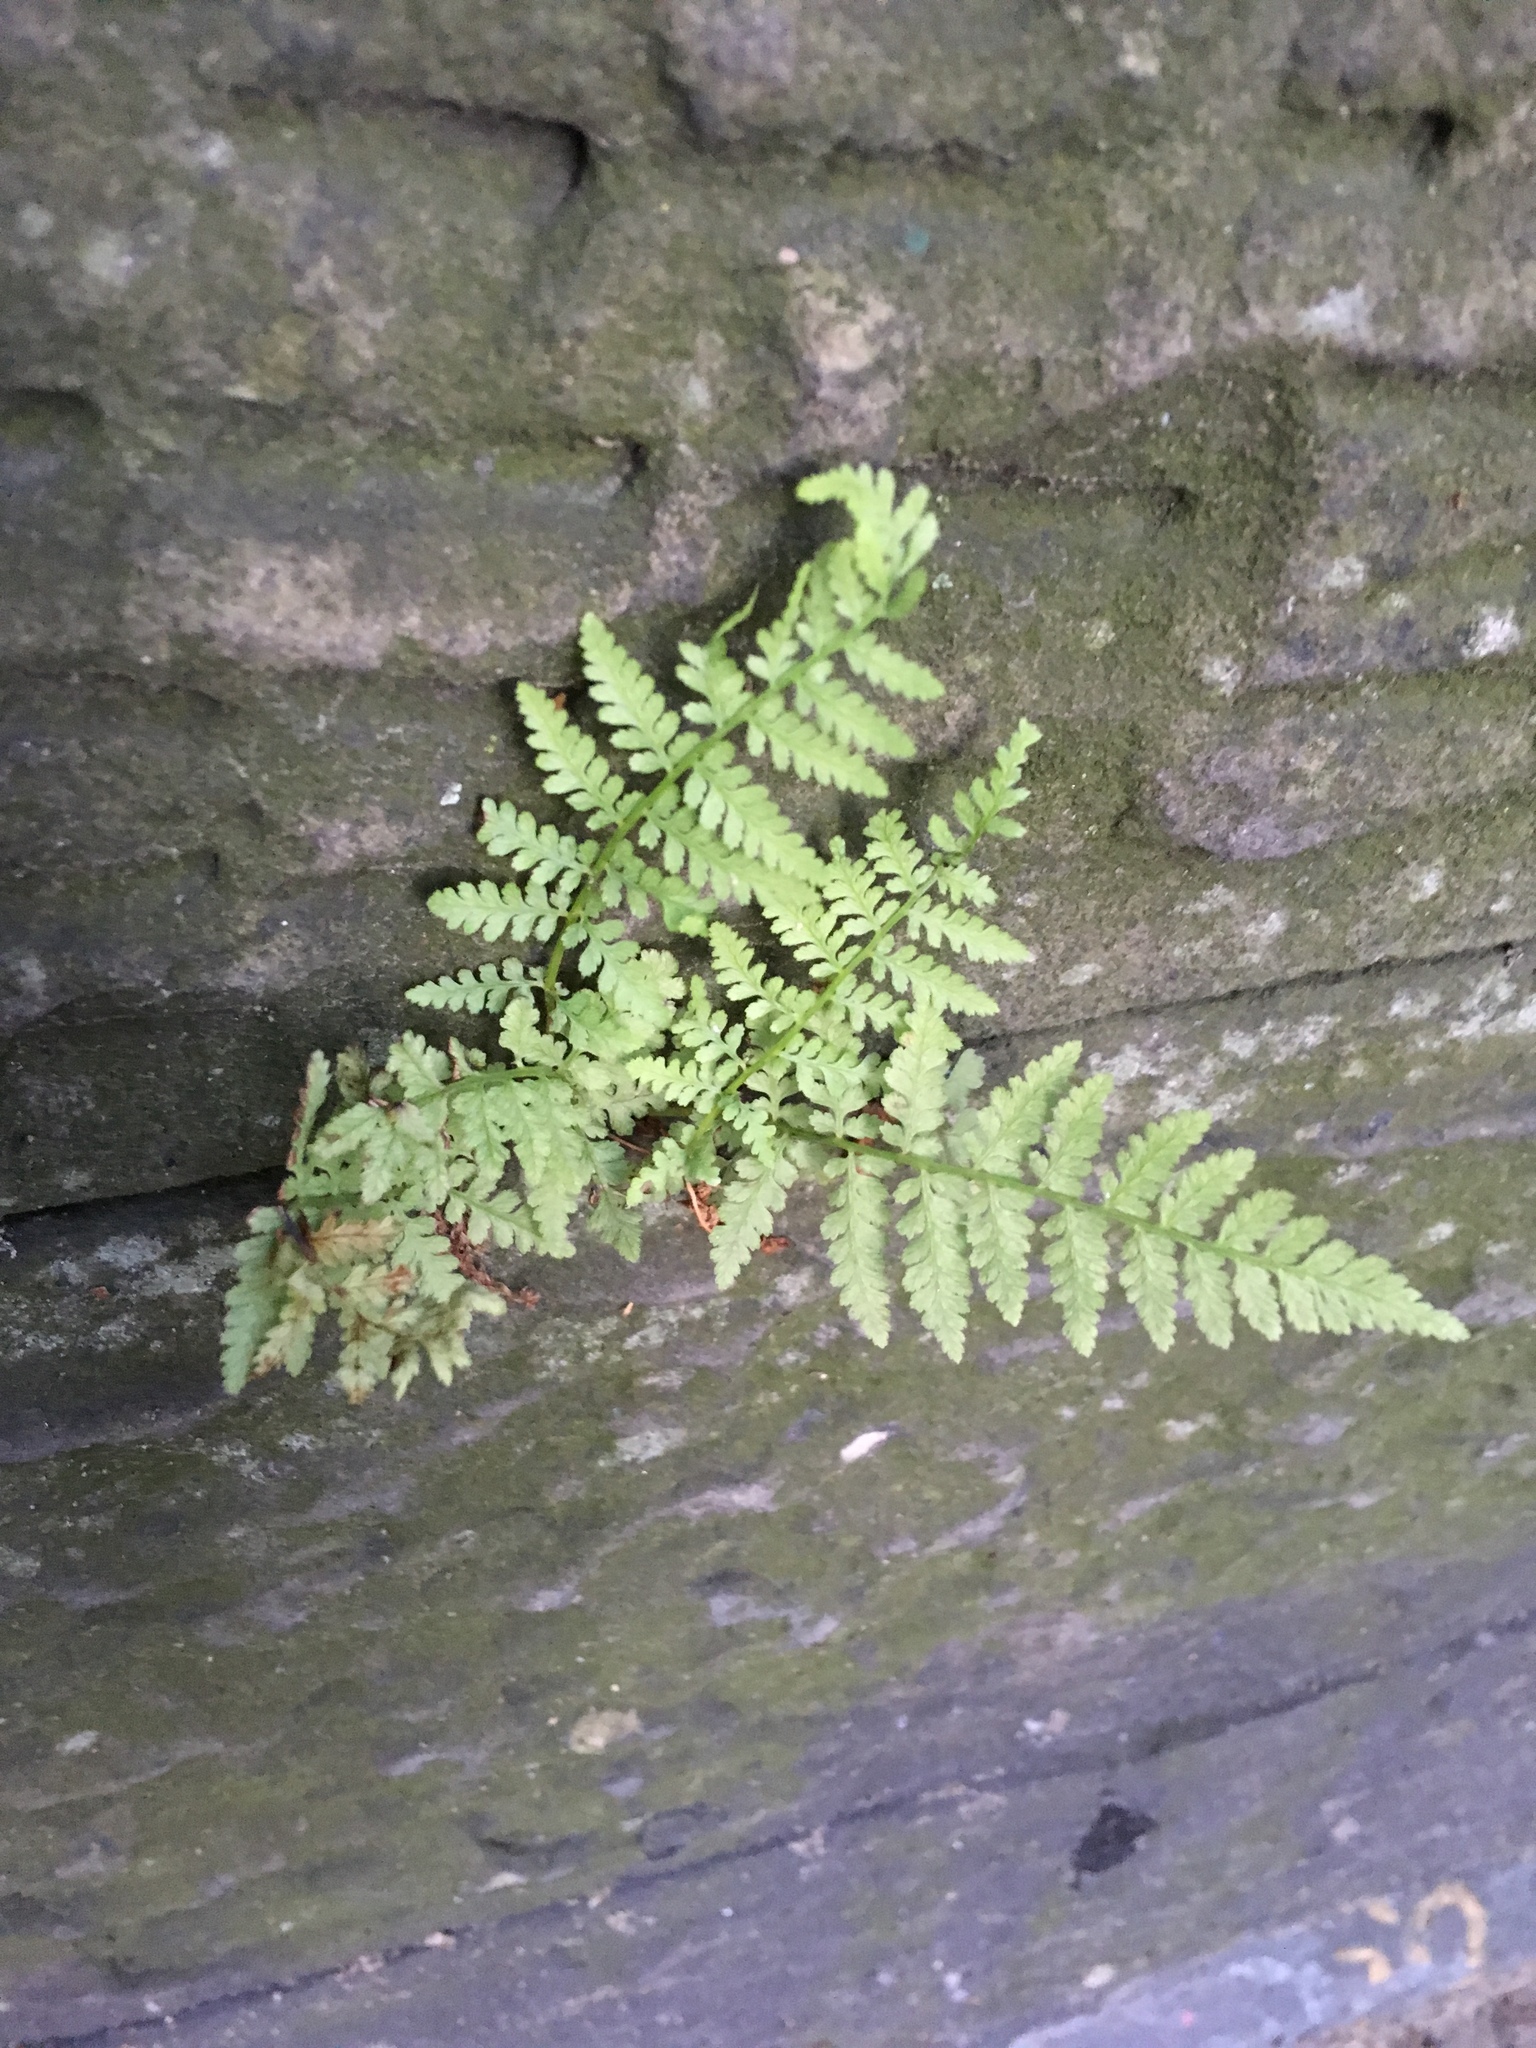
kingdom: Plantae
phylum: Tracheophyta
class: Polypodiopsida
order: Polypodiales
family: Woodsiaceae
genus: Physematium
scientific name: Physematium obtusum
